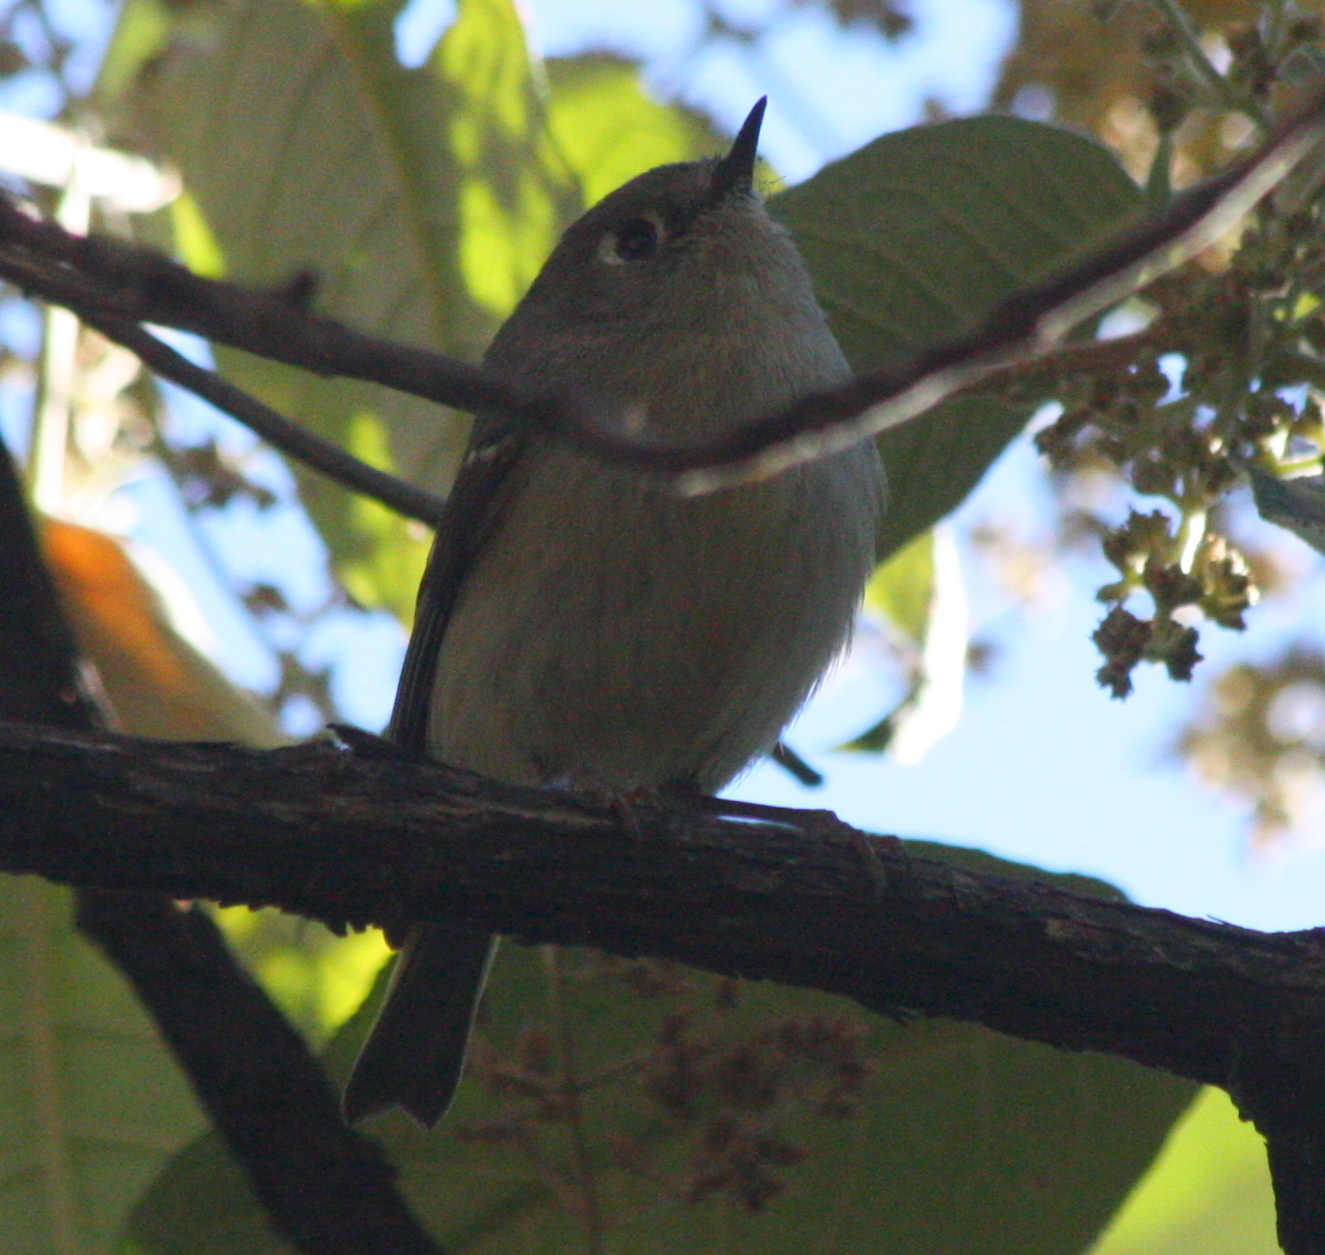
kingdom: Animalia
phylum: Chordata
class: Aves
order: Passeriformes
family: Regulidae
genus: Regulus
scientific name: Regulus calendula
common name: Ruby-crowned kinglet
